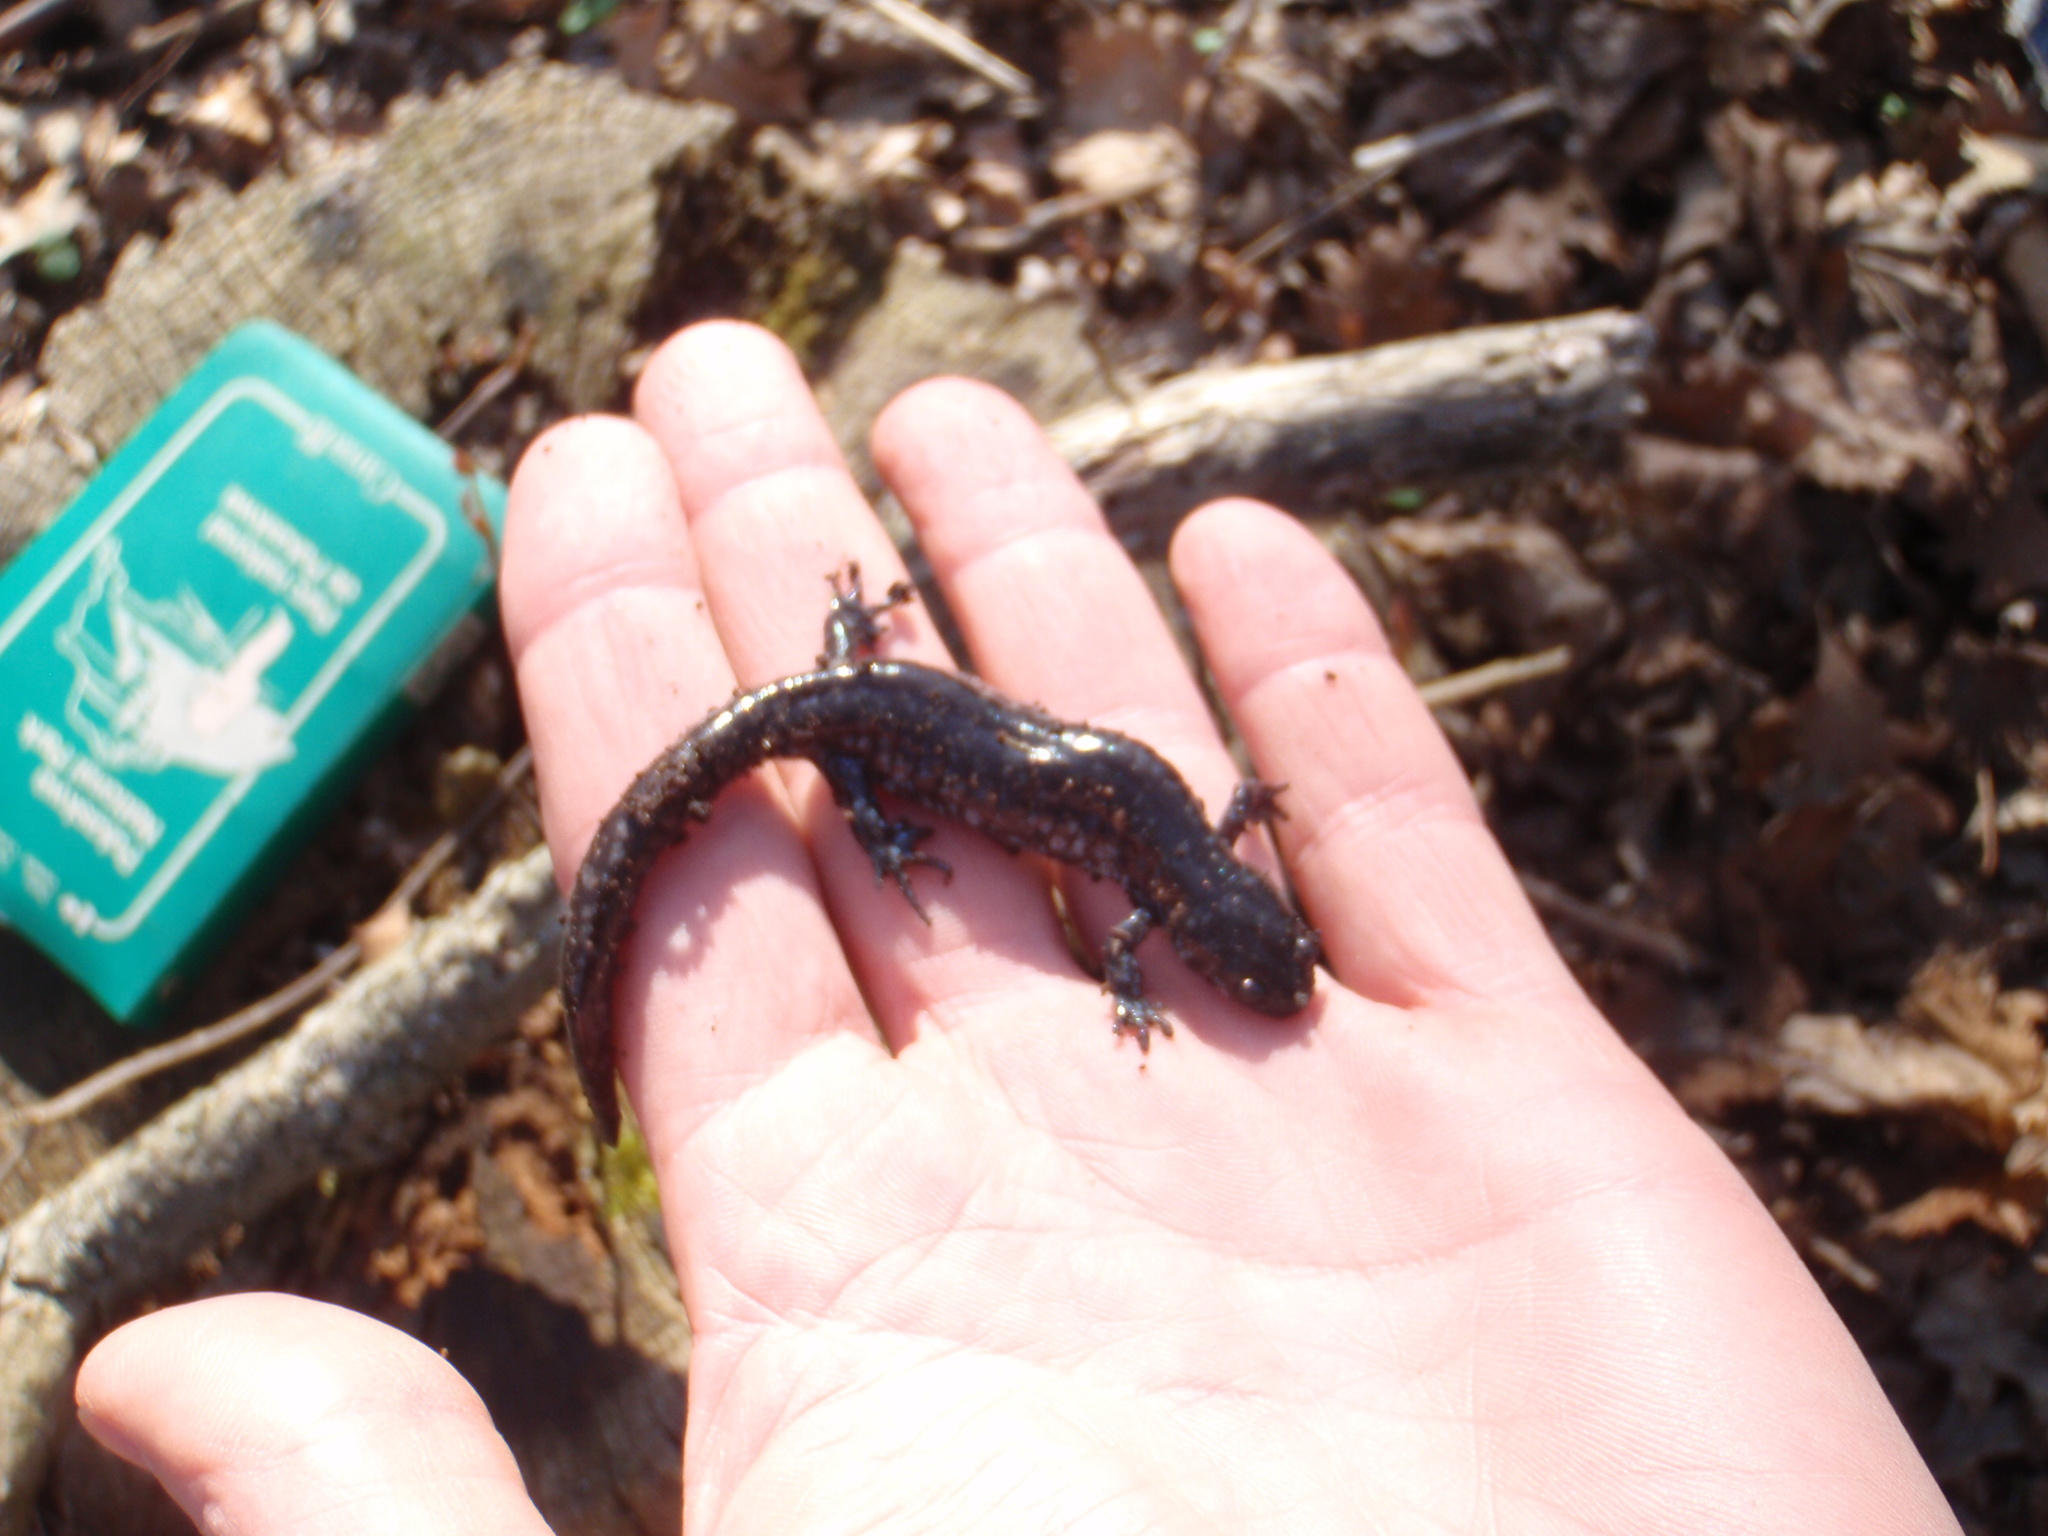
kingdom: Animalia
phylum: Chordata
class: Amphibia
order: Caudata
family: Ambystomatidae
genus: Ambystoma
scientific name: Ambystoma unisexual
